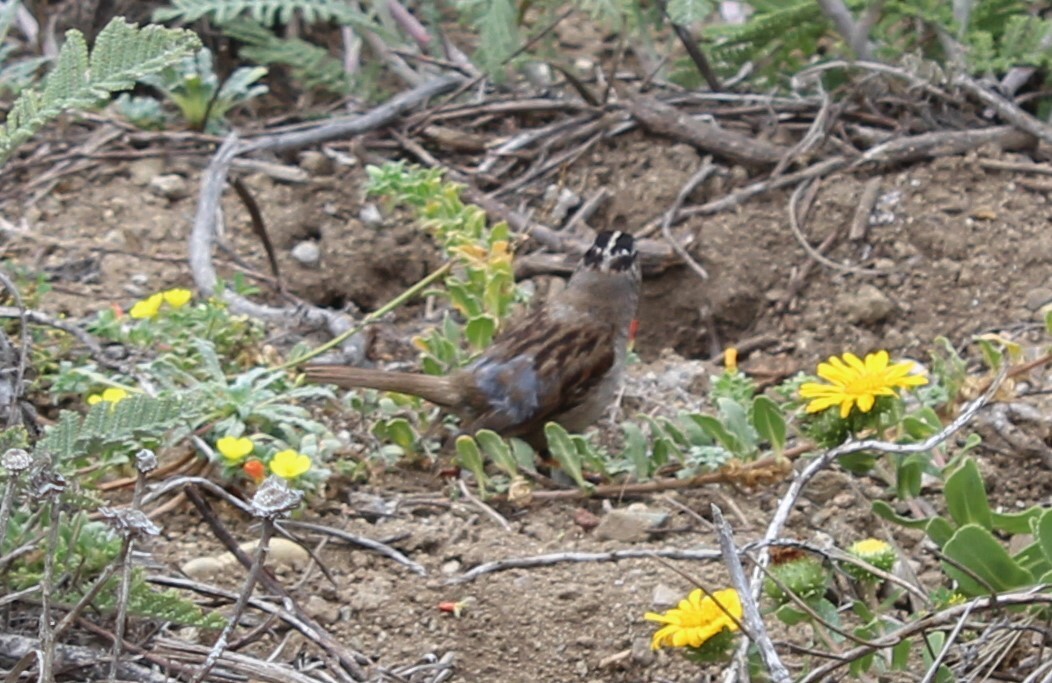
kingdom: Animalia
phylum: Chordata
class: Aves
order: Passeriformes
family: Passerellidae
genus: Zonotrichia
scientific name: Zonotrichia leucophrys
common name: White-crowned sparrow
